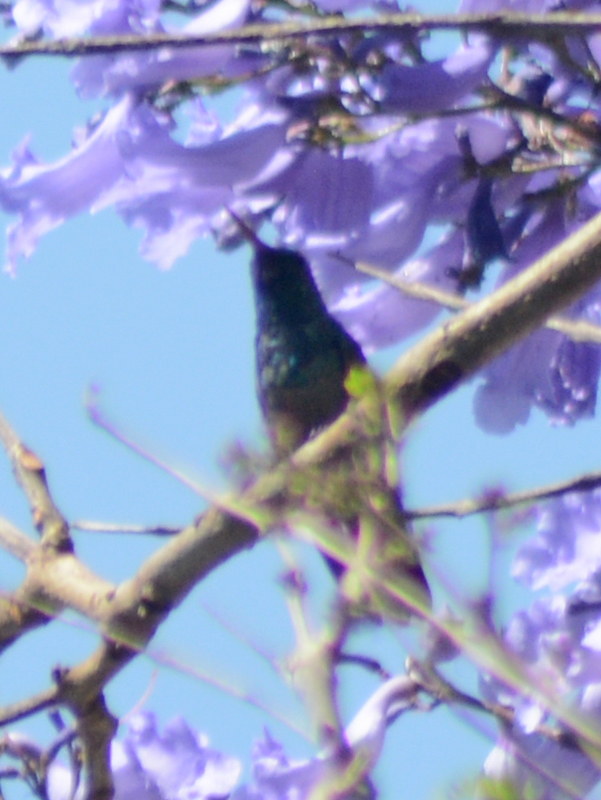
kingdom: Animalia
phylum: Chordata
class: Aves
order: Apodiformes
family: Trochilidae
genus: Cynanthus
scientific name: Cynanthus latirostris
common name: Broad-billed hummingbird
